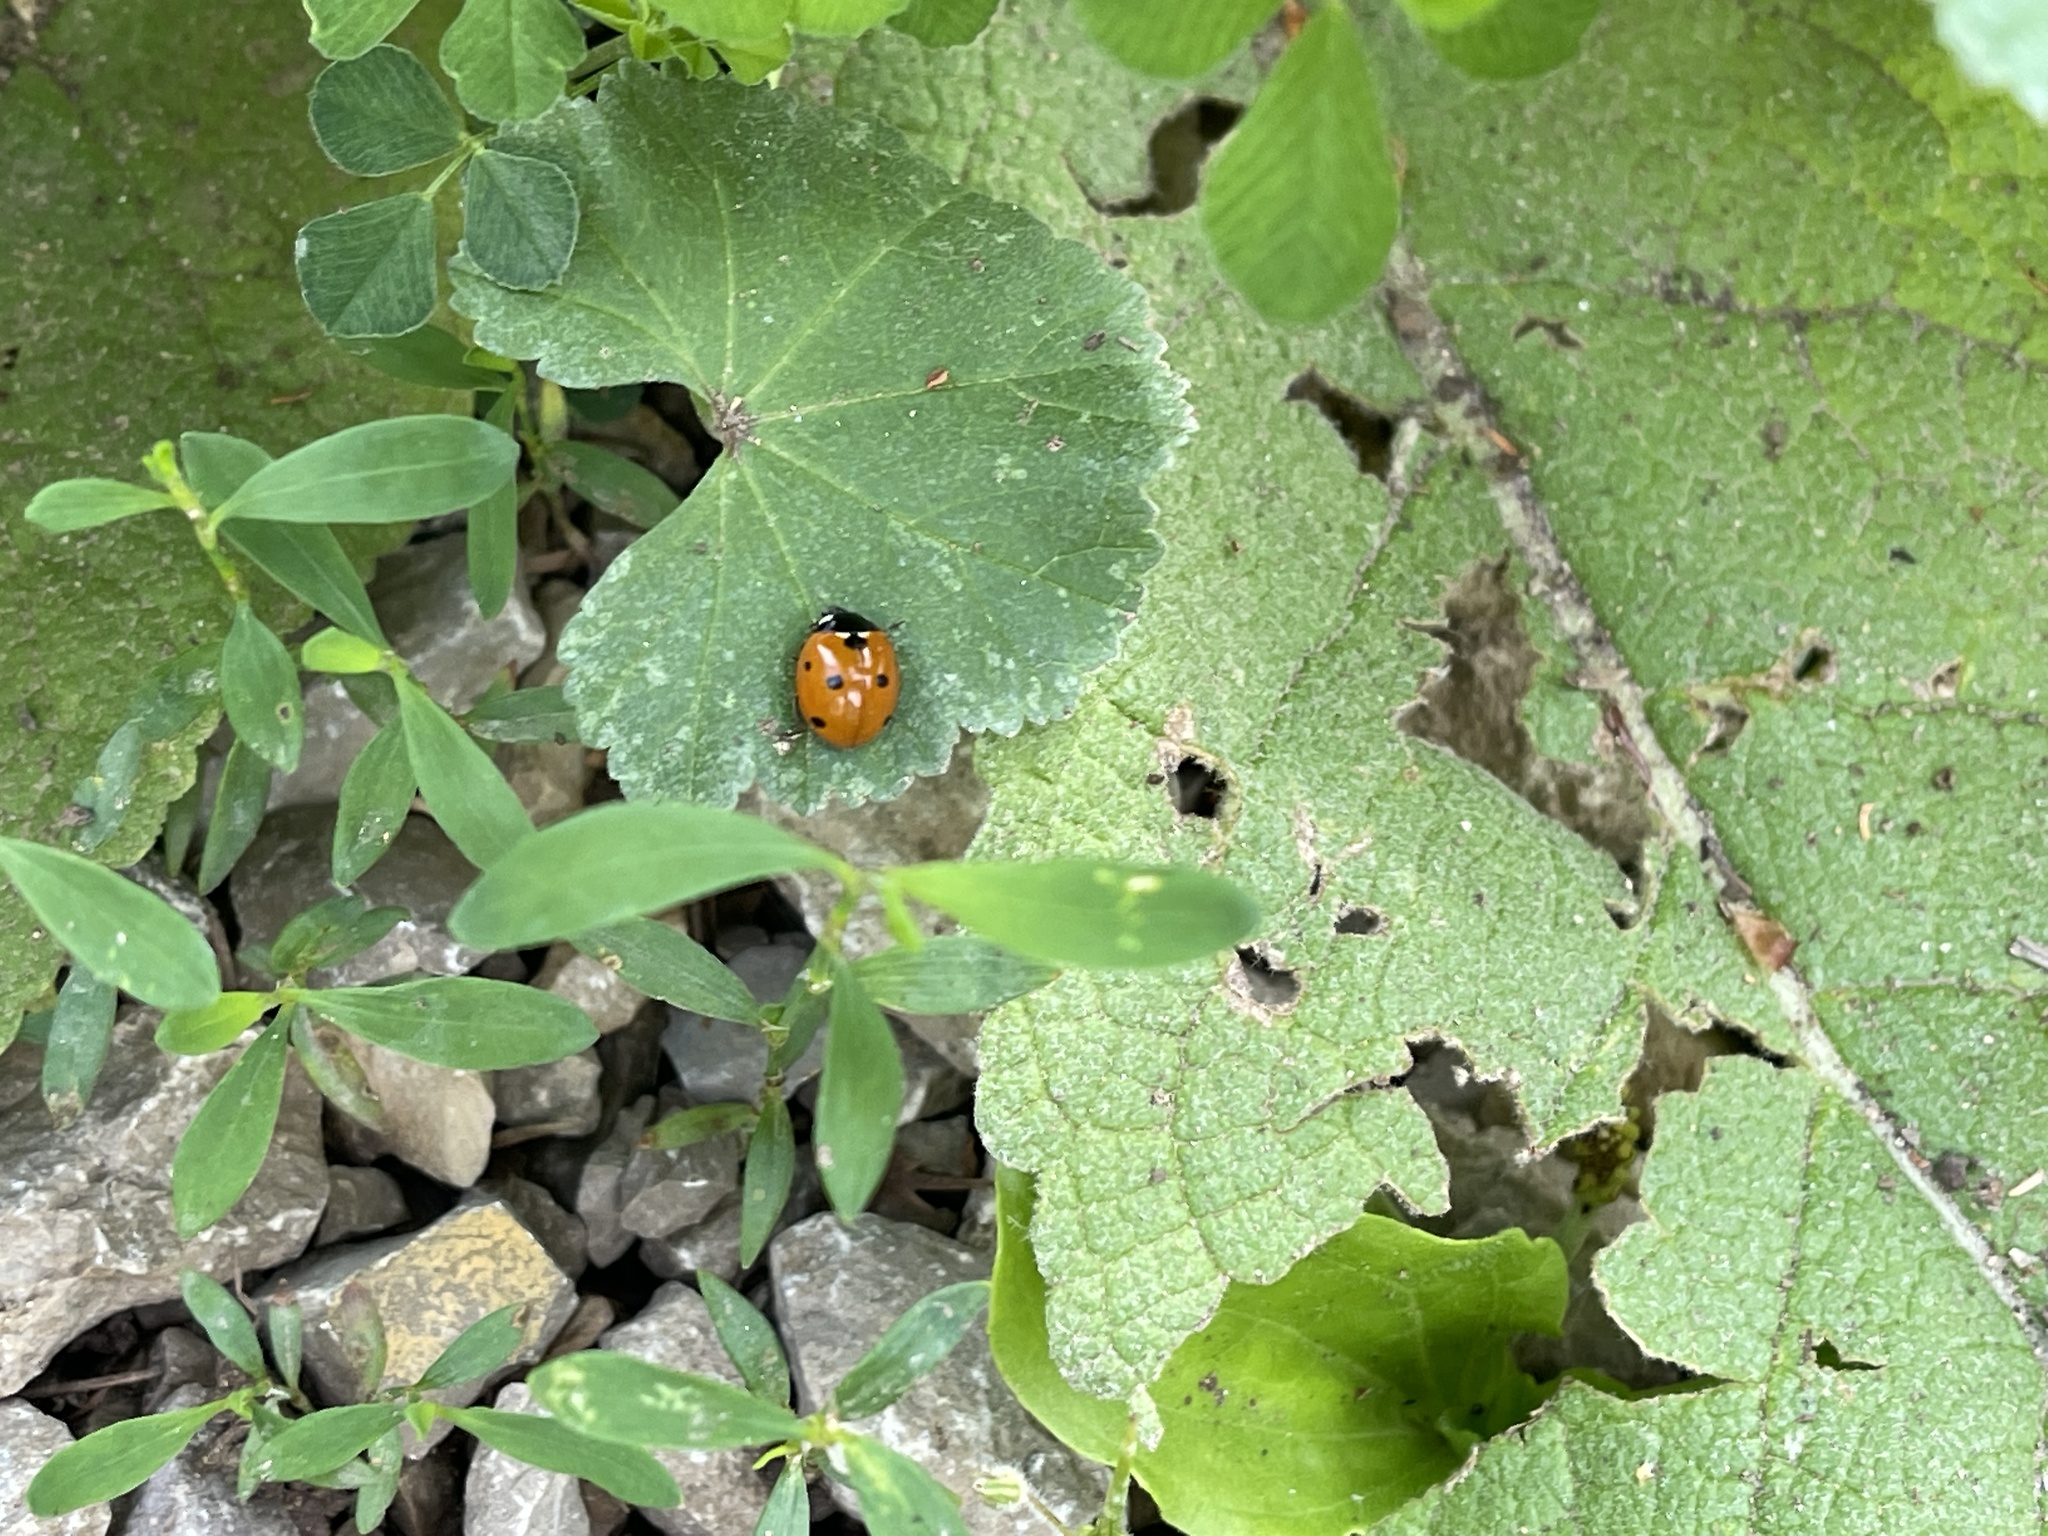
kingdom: Animalia
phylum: Arthropoda
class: Insecta
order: Coleoptera
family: Coccinellidae
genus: Coccinella
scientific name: Coccinella septempunctata
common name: Sevenspotted lady beetle
